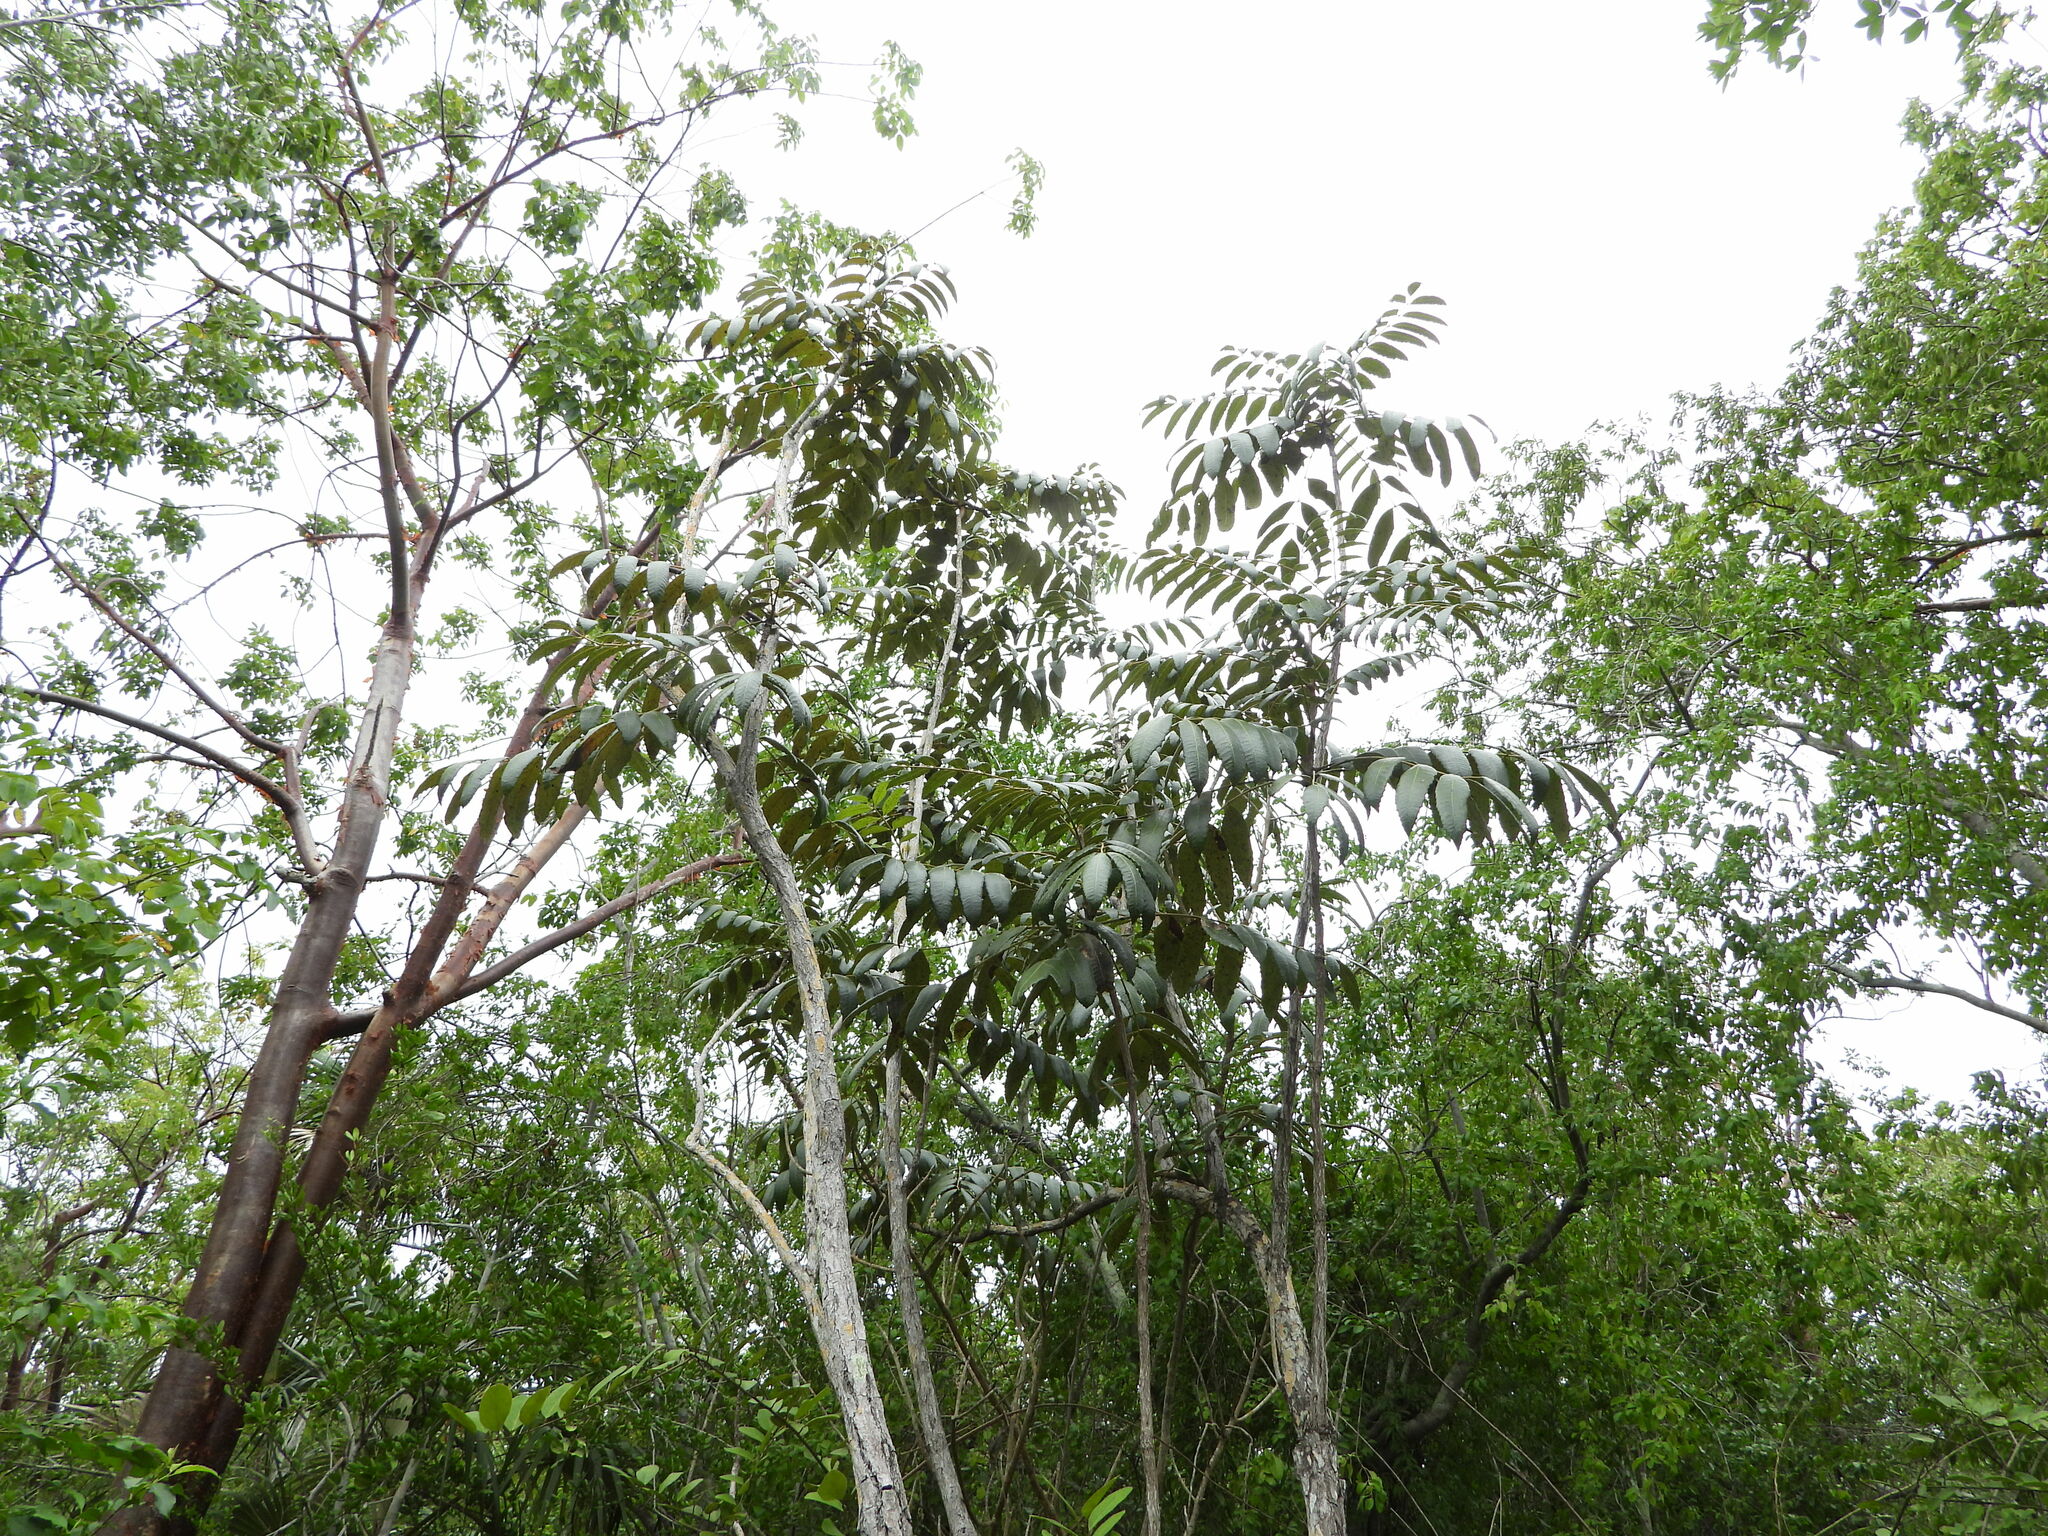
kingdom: Plantae
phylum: Tracheophyta
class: Magnoliopsida
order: Sapindales
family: Anacardiaceae
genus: Comocladia
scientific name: Comocladia dentata
